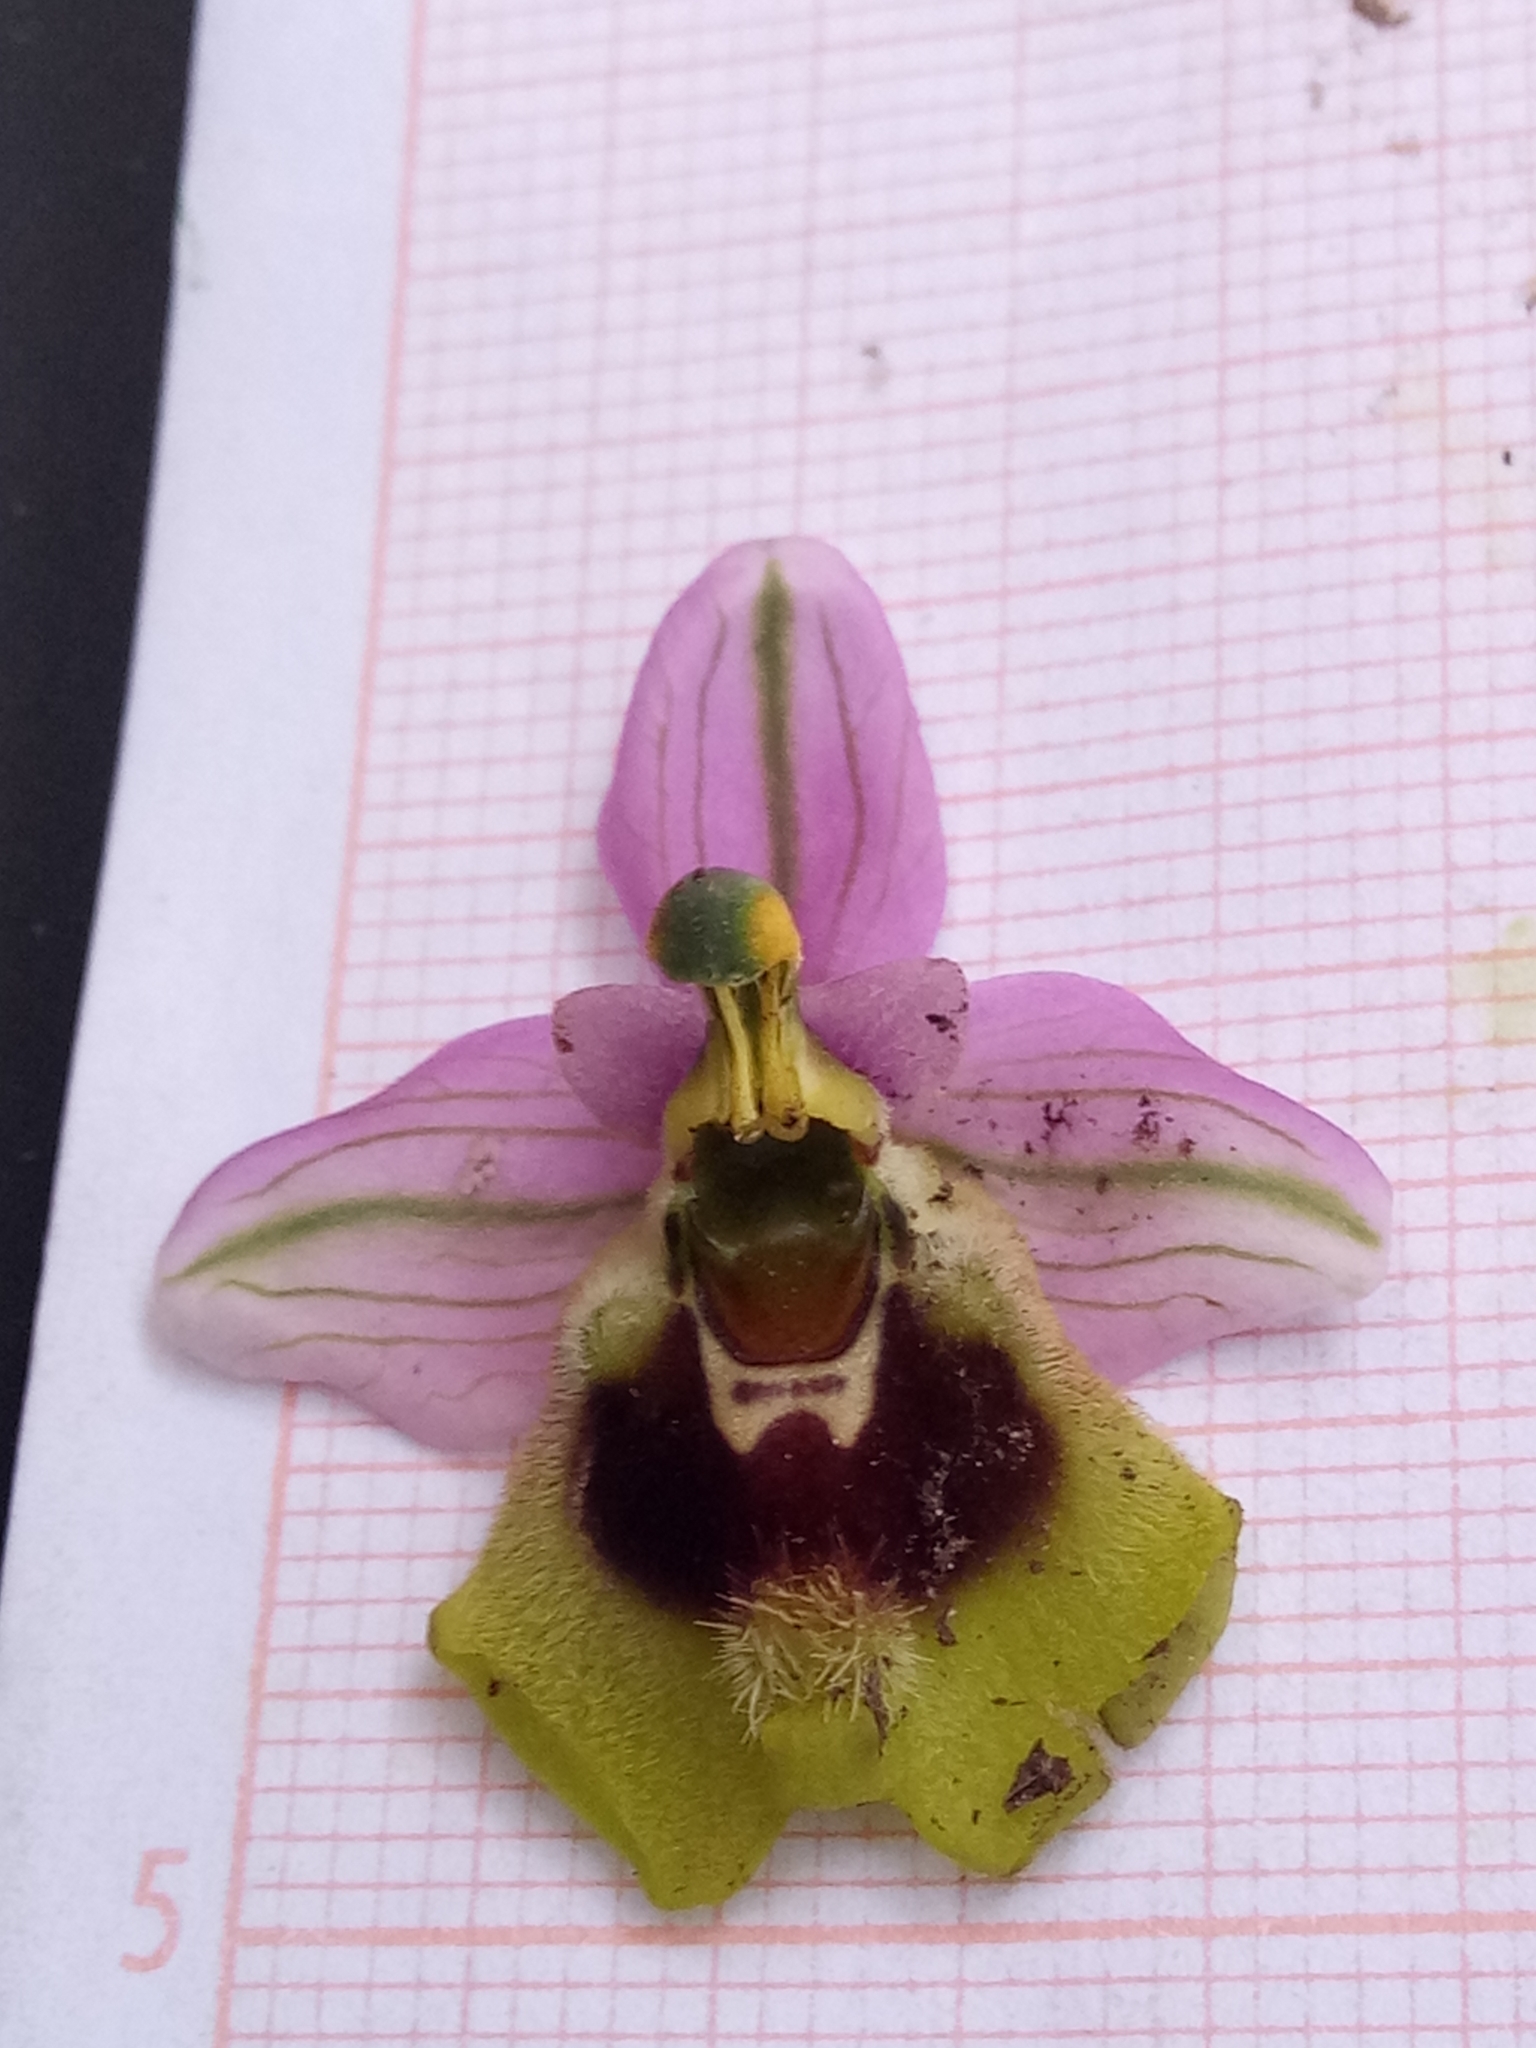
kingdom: Plantae
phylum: Tracheophyta
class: Liliopsida
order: Asparagales
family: Orchidaceae
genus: Ophrys
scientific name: Ophrys tenthredinifera
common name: Sawfly orchid
